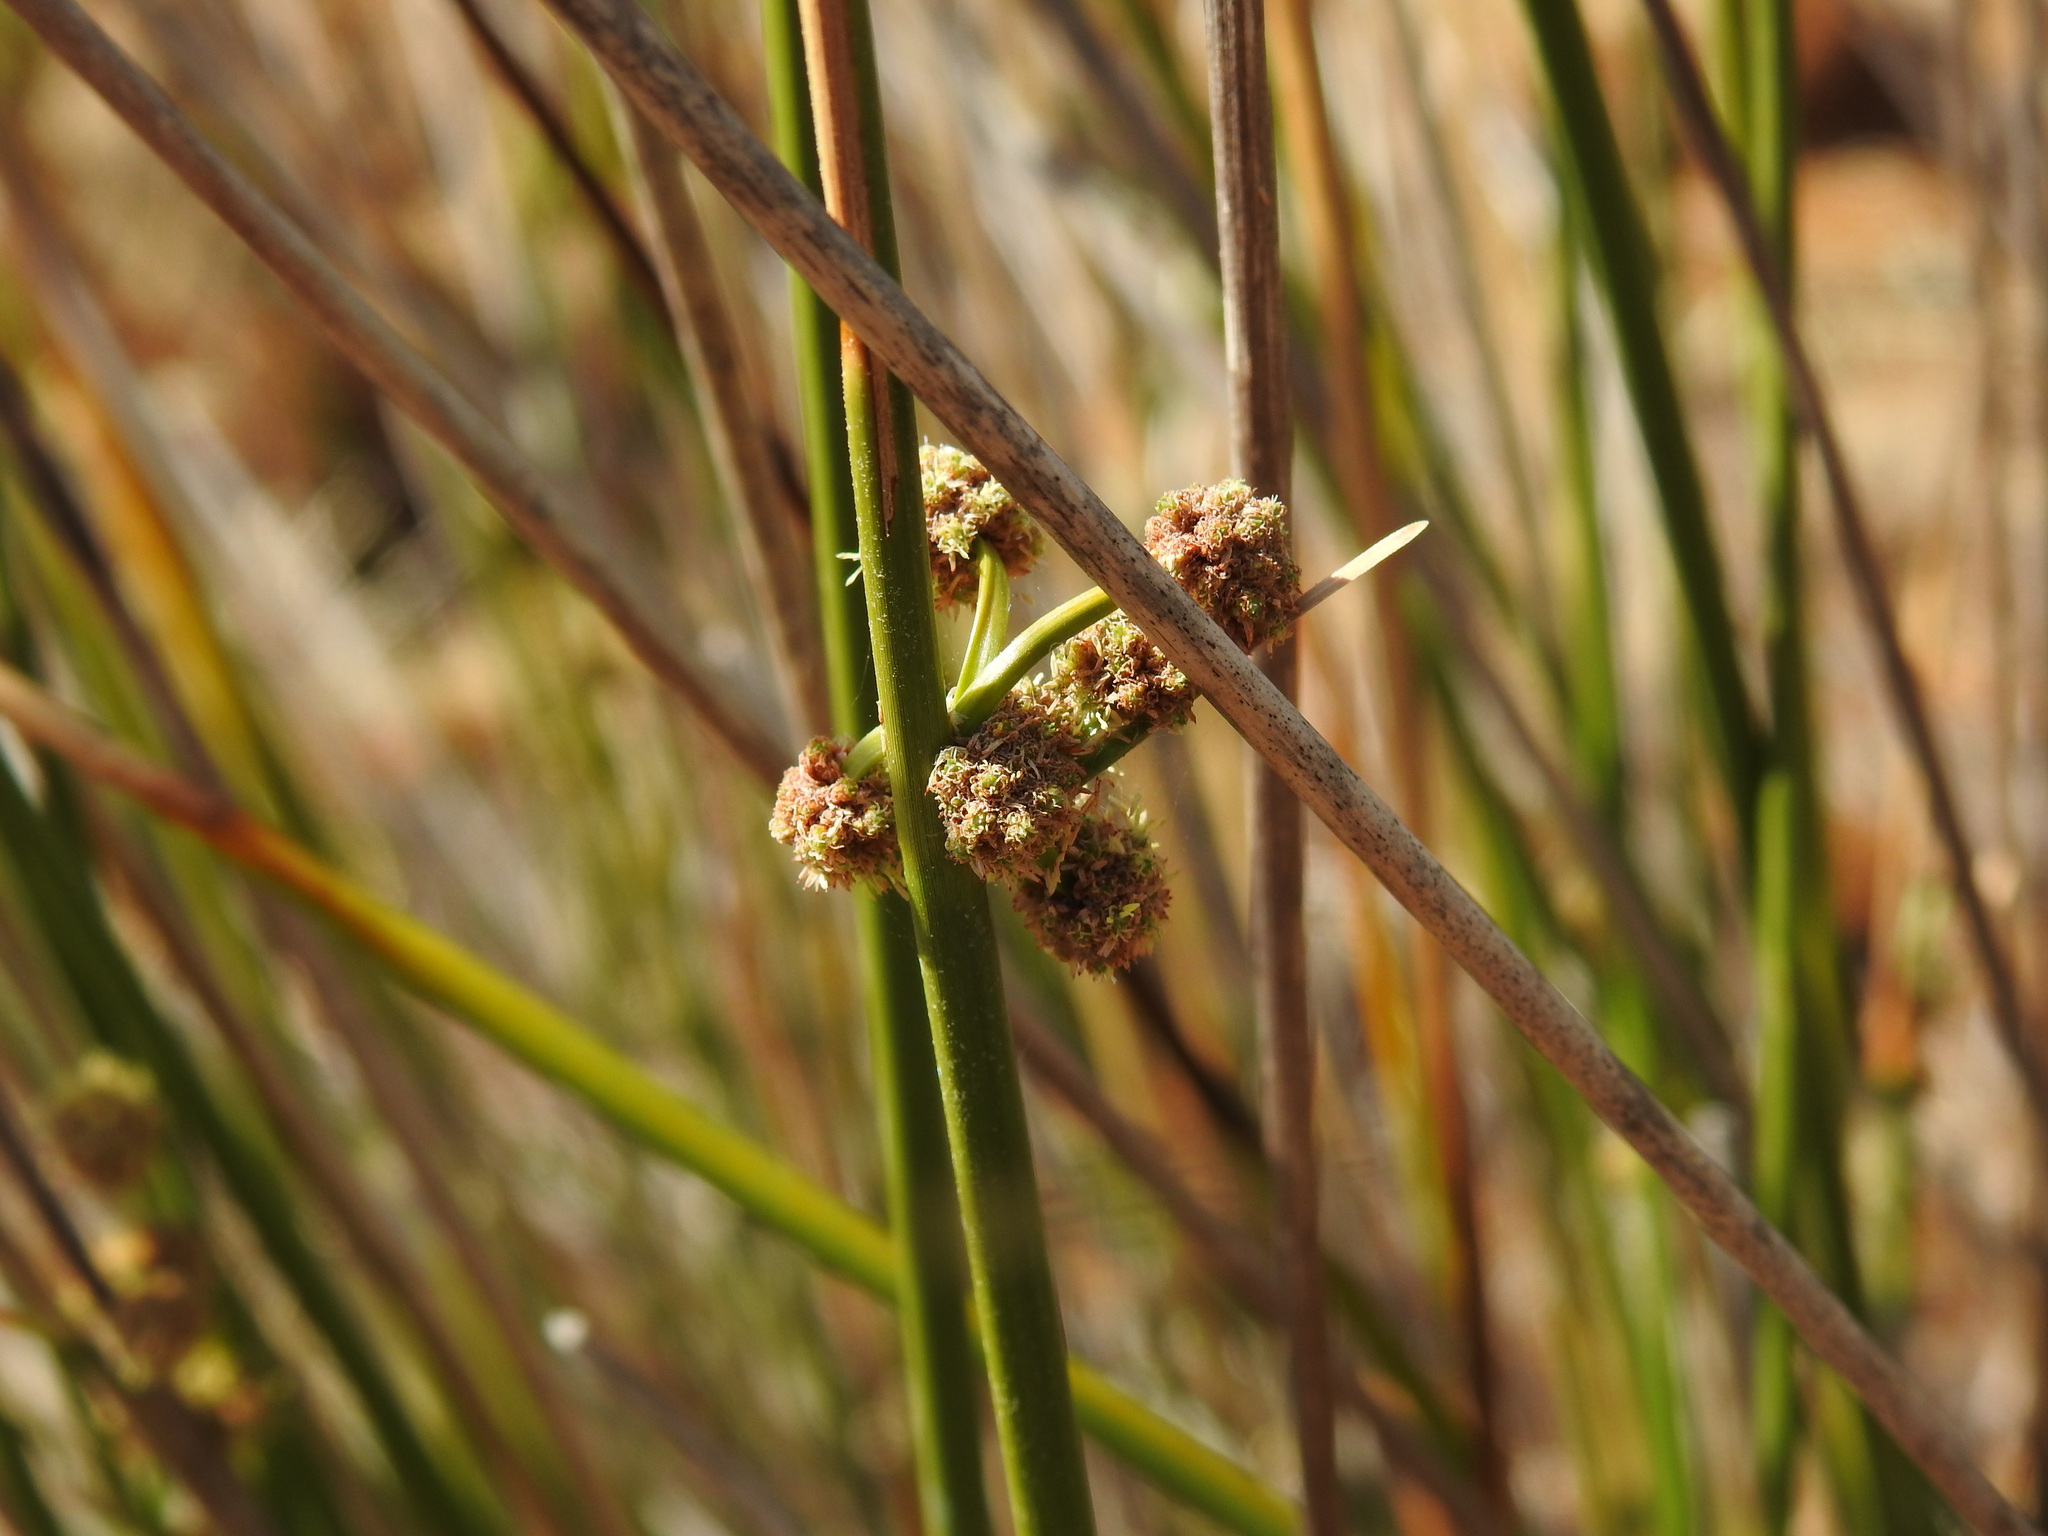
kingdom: Plantae
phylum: Tracheophyta
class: Liliopsida
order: Poales
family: Cyperaceae
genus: Scirpoides
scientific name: Scirpoides holoschoenus
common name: Round-headed club-rush
